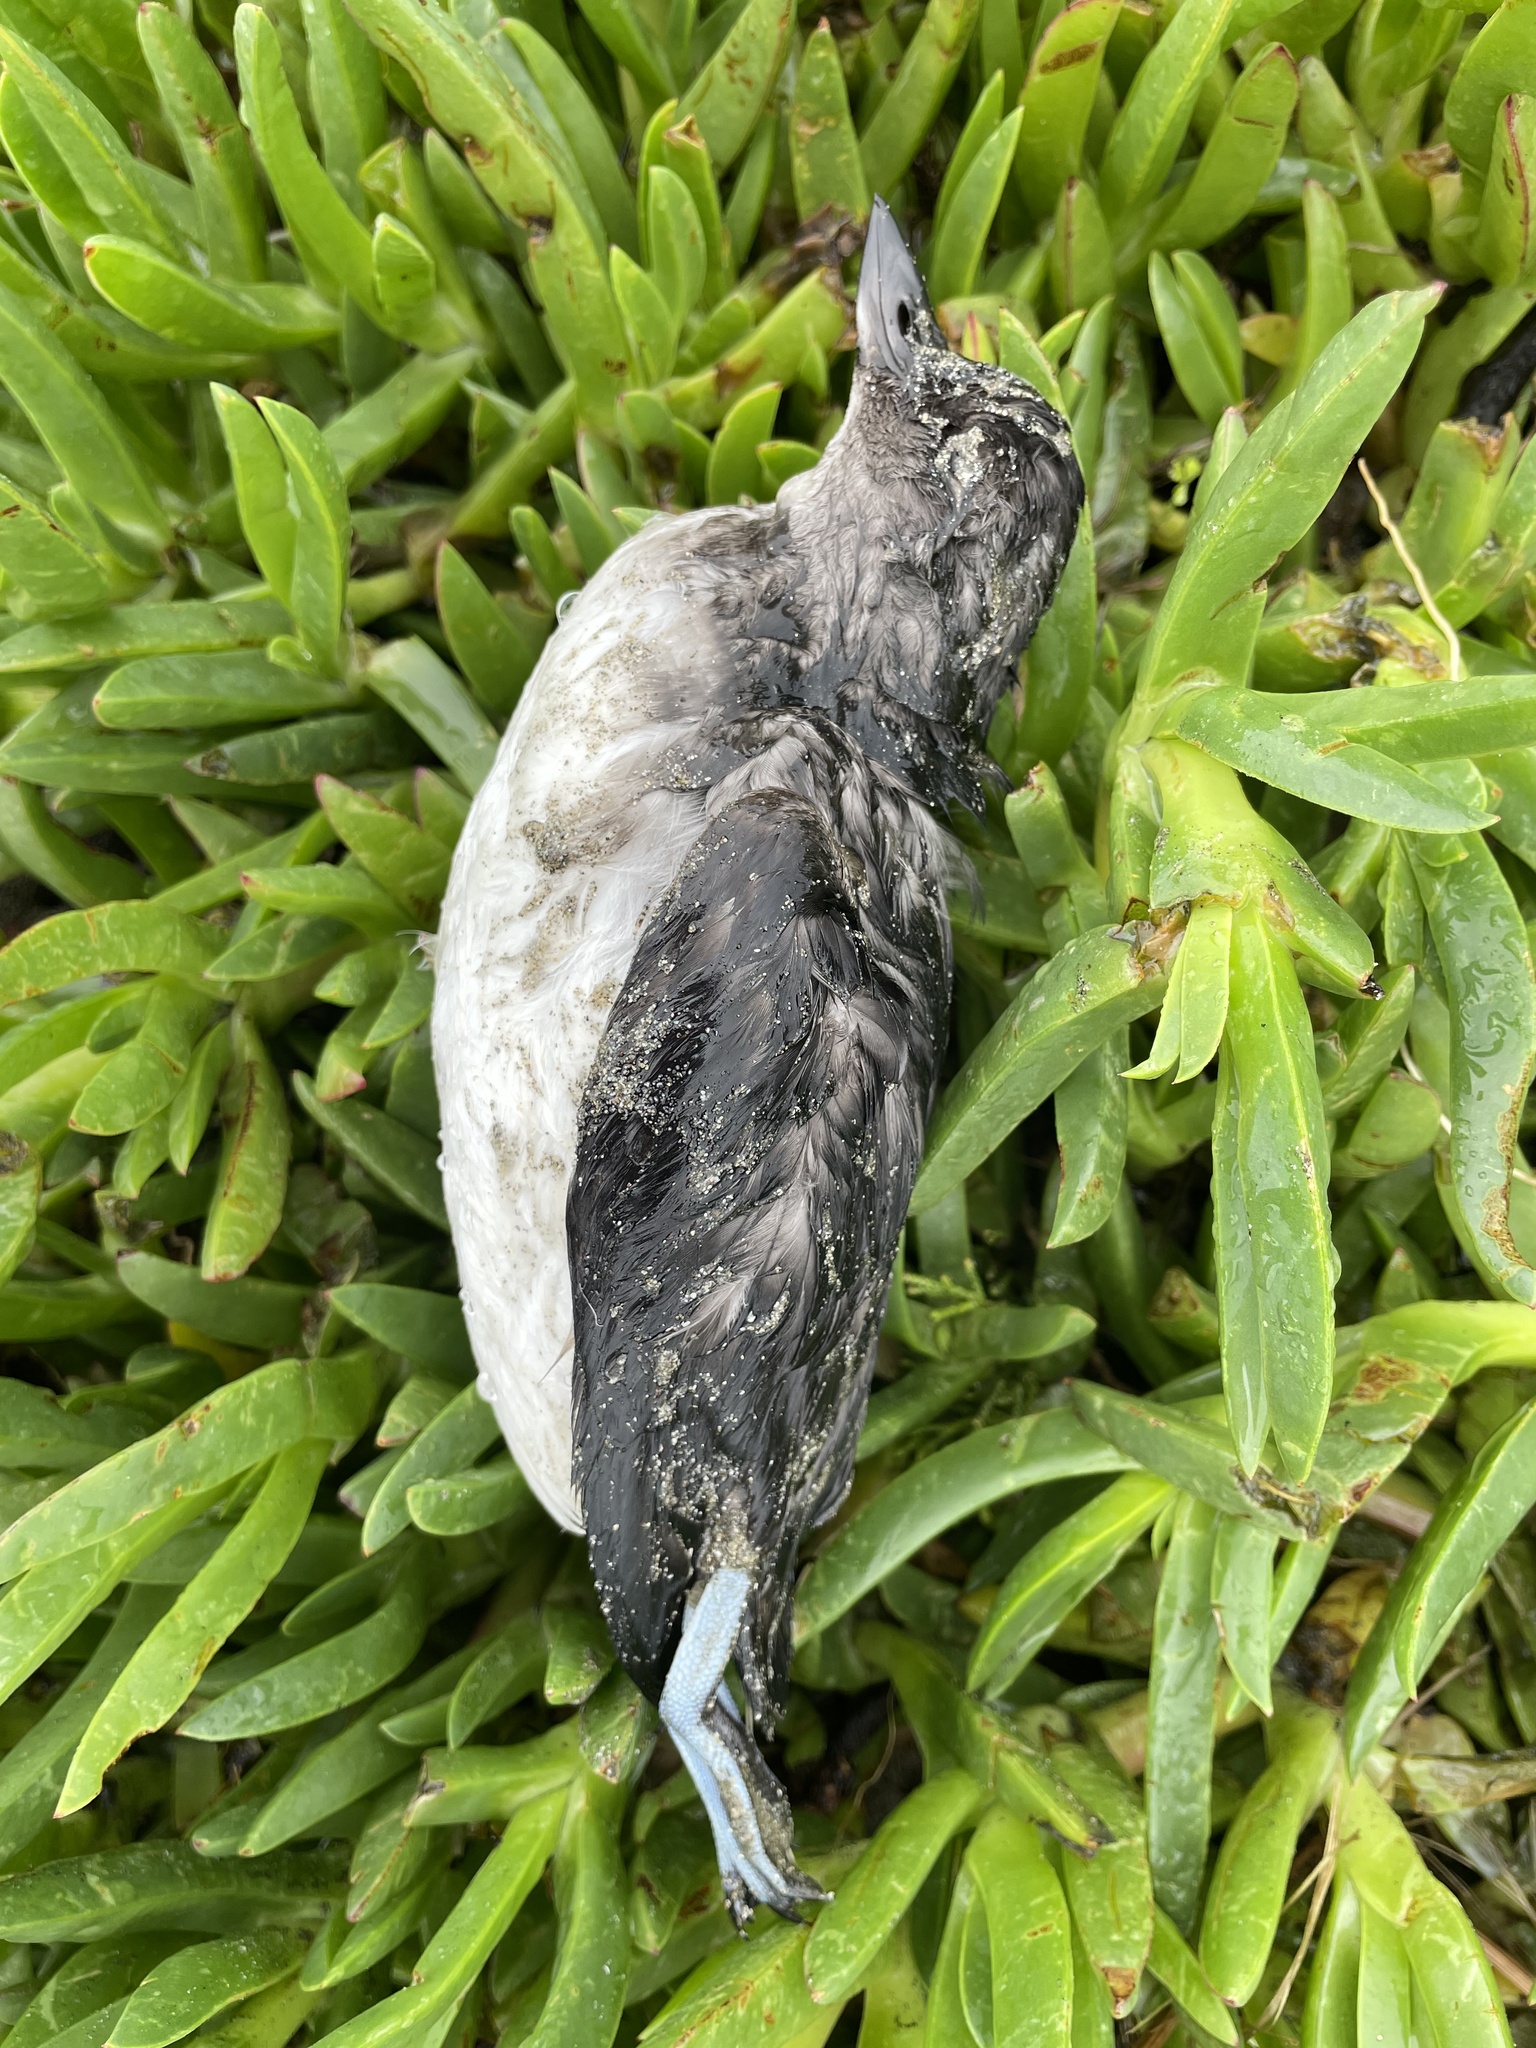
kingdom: Animalia
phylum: Chordata
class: Aves
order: Charadriiformes
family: Alcidae
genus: Ptychoramphus
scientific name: Ptychoramphus aleuticus
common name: Cassin's auklet
